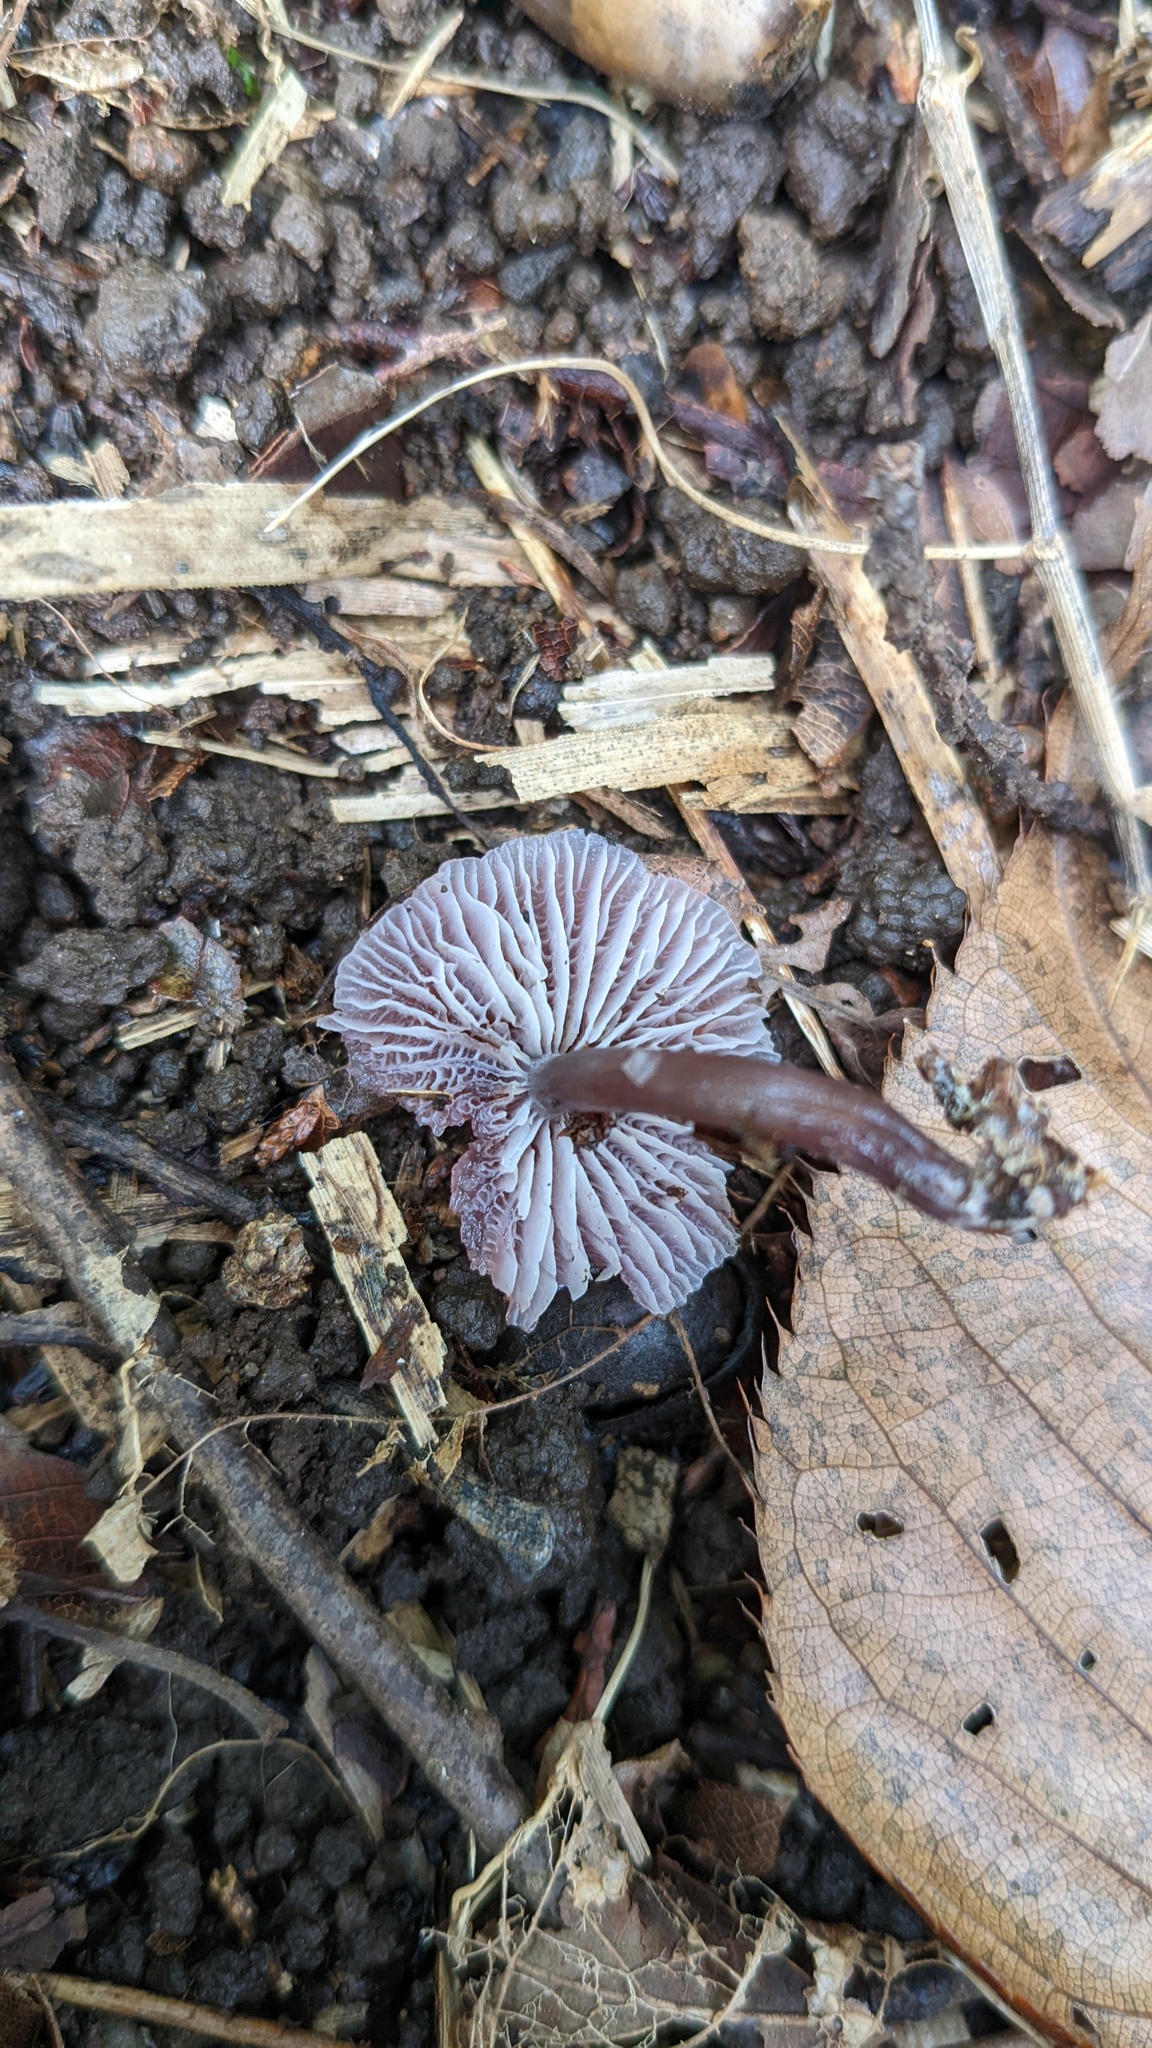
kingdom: Fungi
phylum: Basidiomycota
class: Agaricomycetes
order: Agaricales
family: Mycenaceae
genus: Mycena
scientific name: Mycena pura
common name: Lilac bonnet
